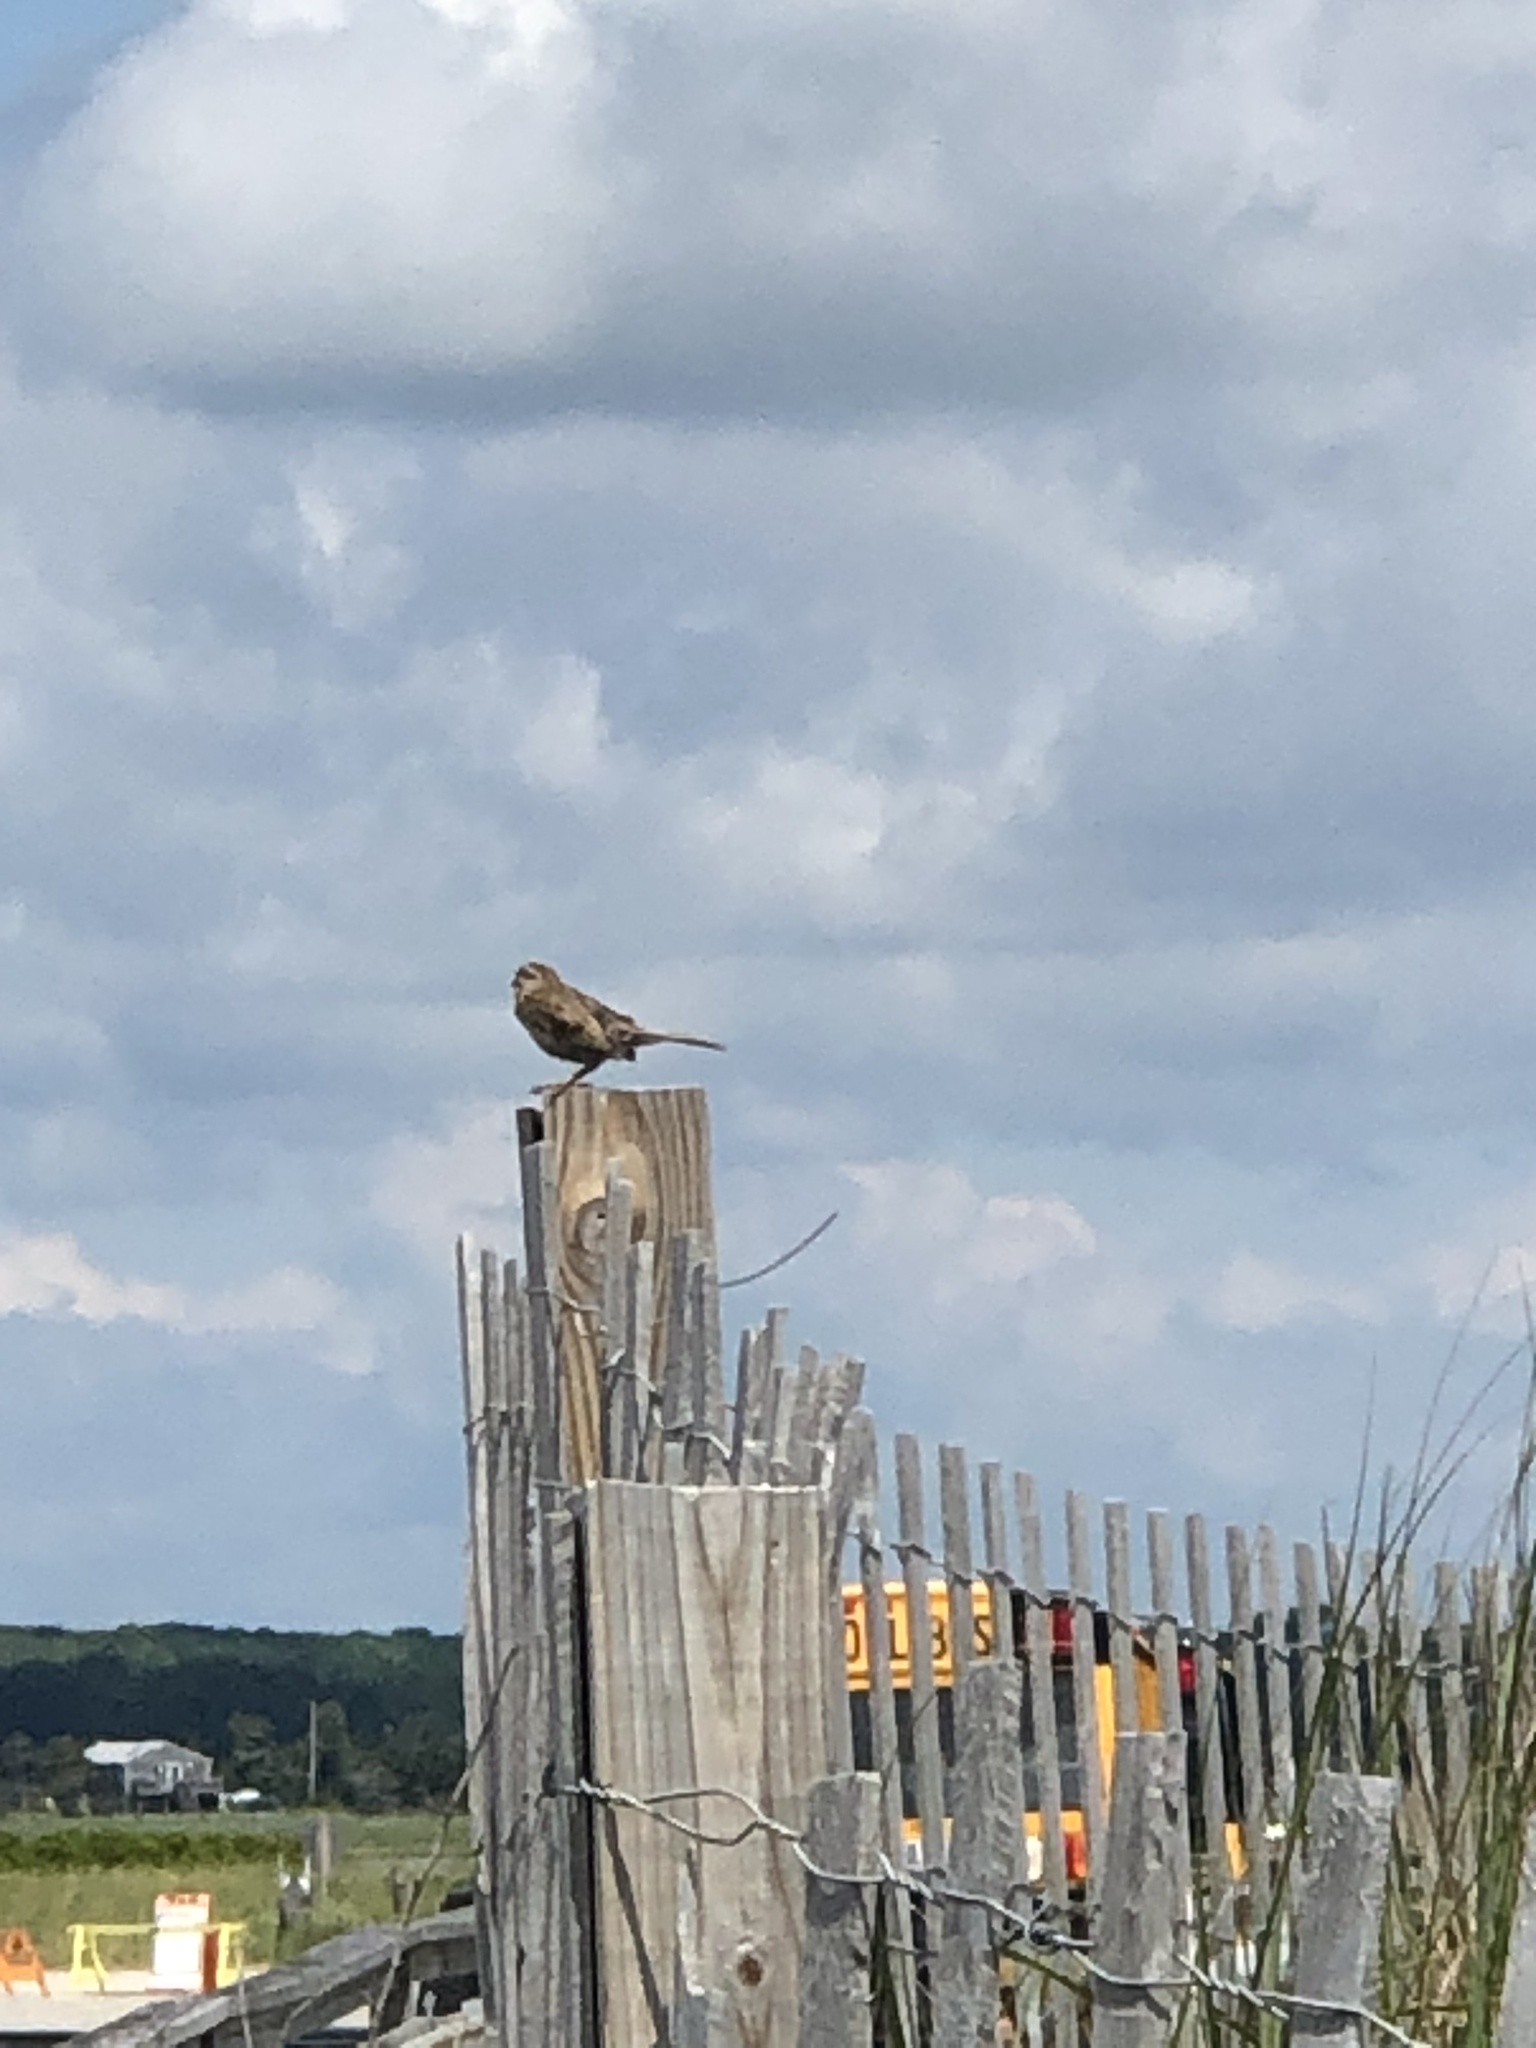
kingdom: Animalia
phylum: Chordata
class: Aves
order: Passeriformes
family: Passerellidae
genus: Melospiza
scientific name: Melospiza melodia
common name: Song sparrow
